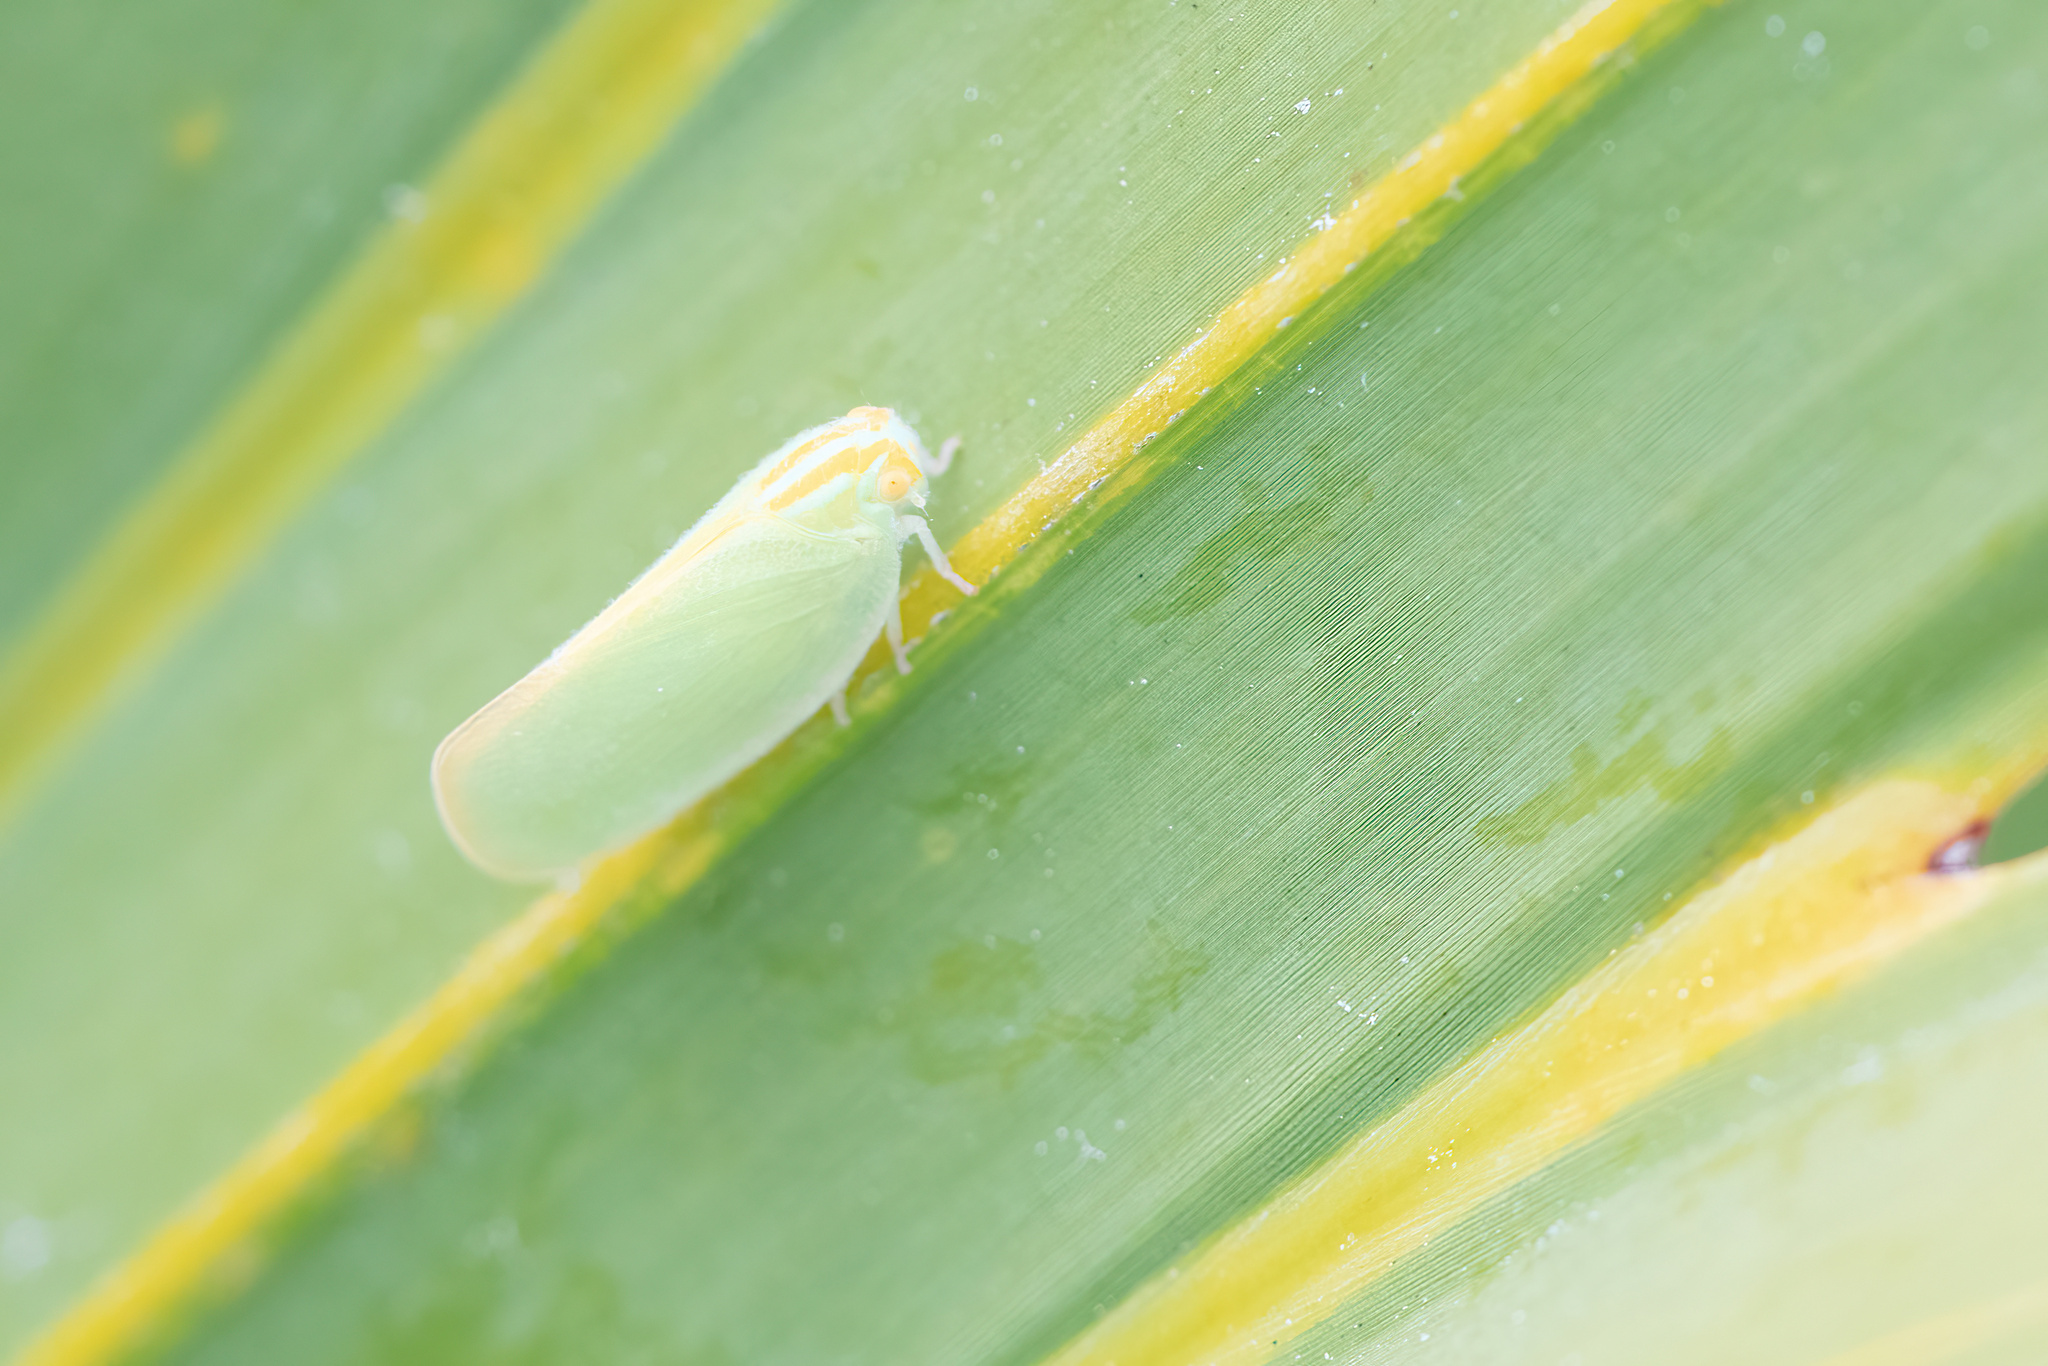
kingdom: Animalia
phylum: Arthropoda
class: Insecta
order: Hemiptera
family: Flatidae
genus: Ormenaria
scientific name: Ormenaria rufifascia
